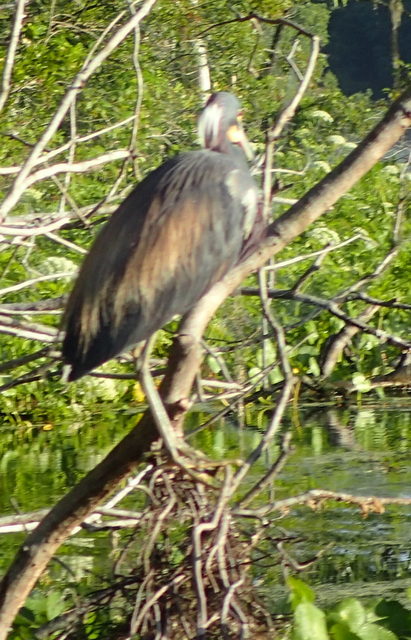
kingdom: Animalia
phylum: Chordata
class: Aves
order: Pelecaniformes
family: Ardeidae
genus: Egretta
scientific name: Egretta tricolor
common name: Tricolored heron
